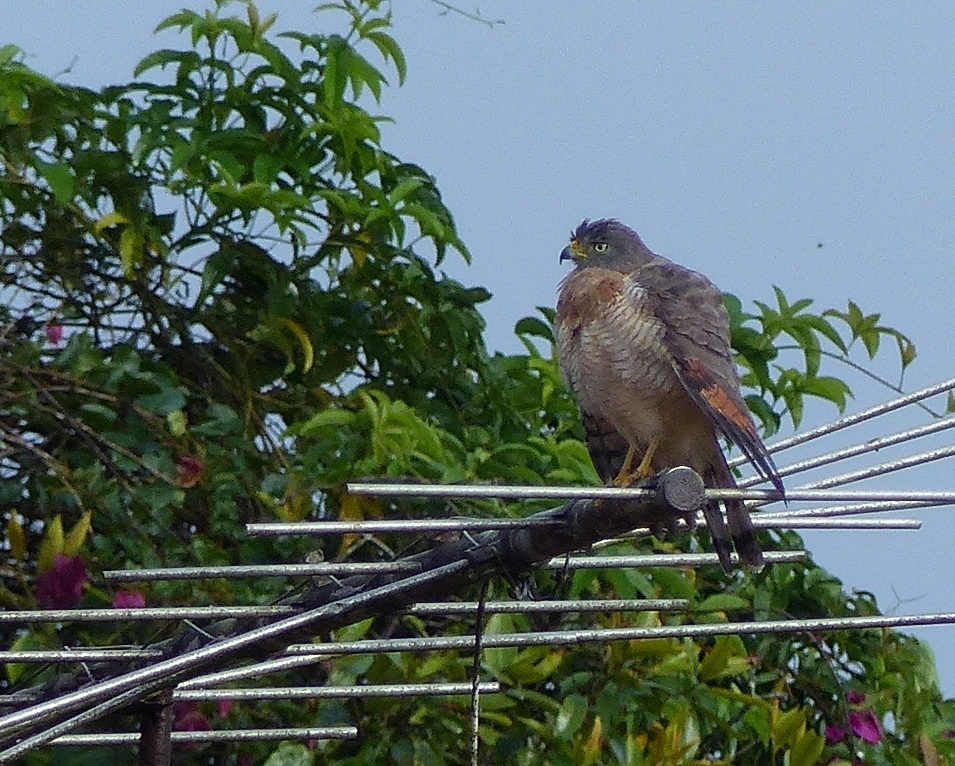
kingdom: Animalia
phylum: Chordata
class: Aves
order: Accipitriformes
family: Accipitridae
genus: Rupornis
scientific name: Rupornis magnirostris
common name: Roadside hawk
